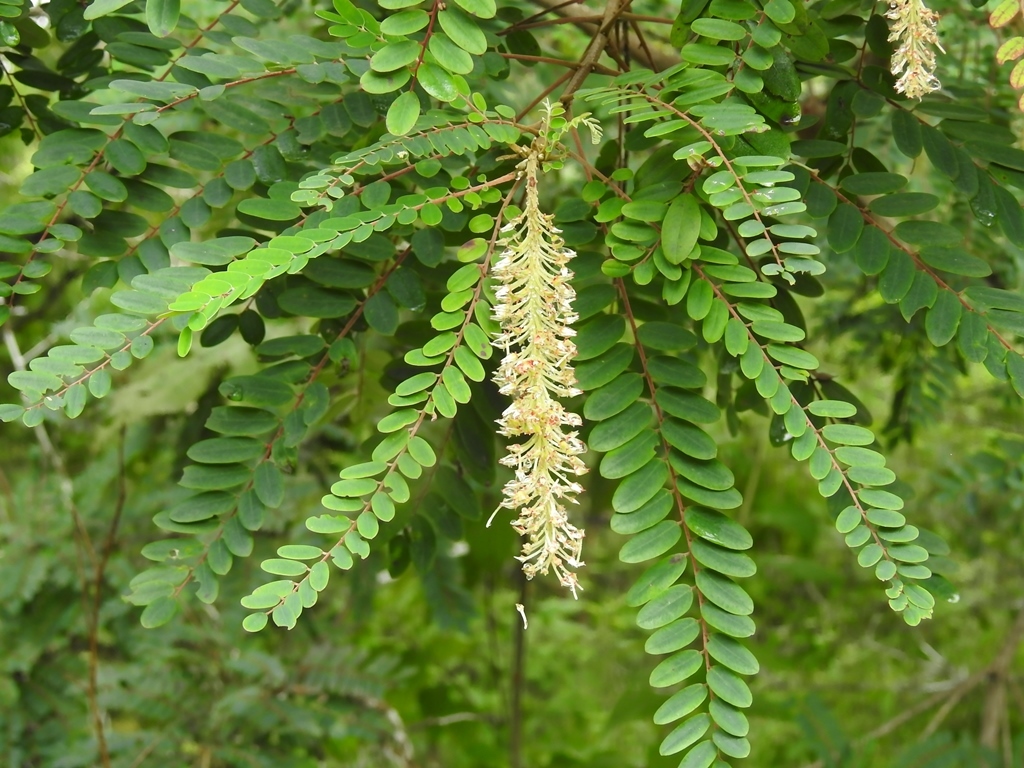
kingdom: Plantae
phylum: Tracheophyta
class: Magnoliopsida
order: Picramniales
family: Picramniaceae
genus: Alvaradoa
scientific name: Alvaradoa amorphoides
